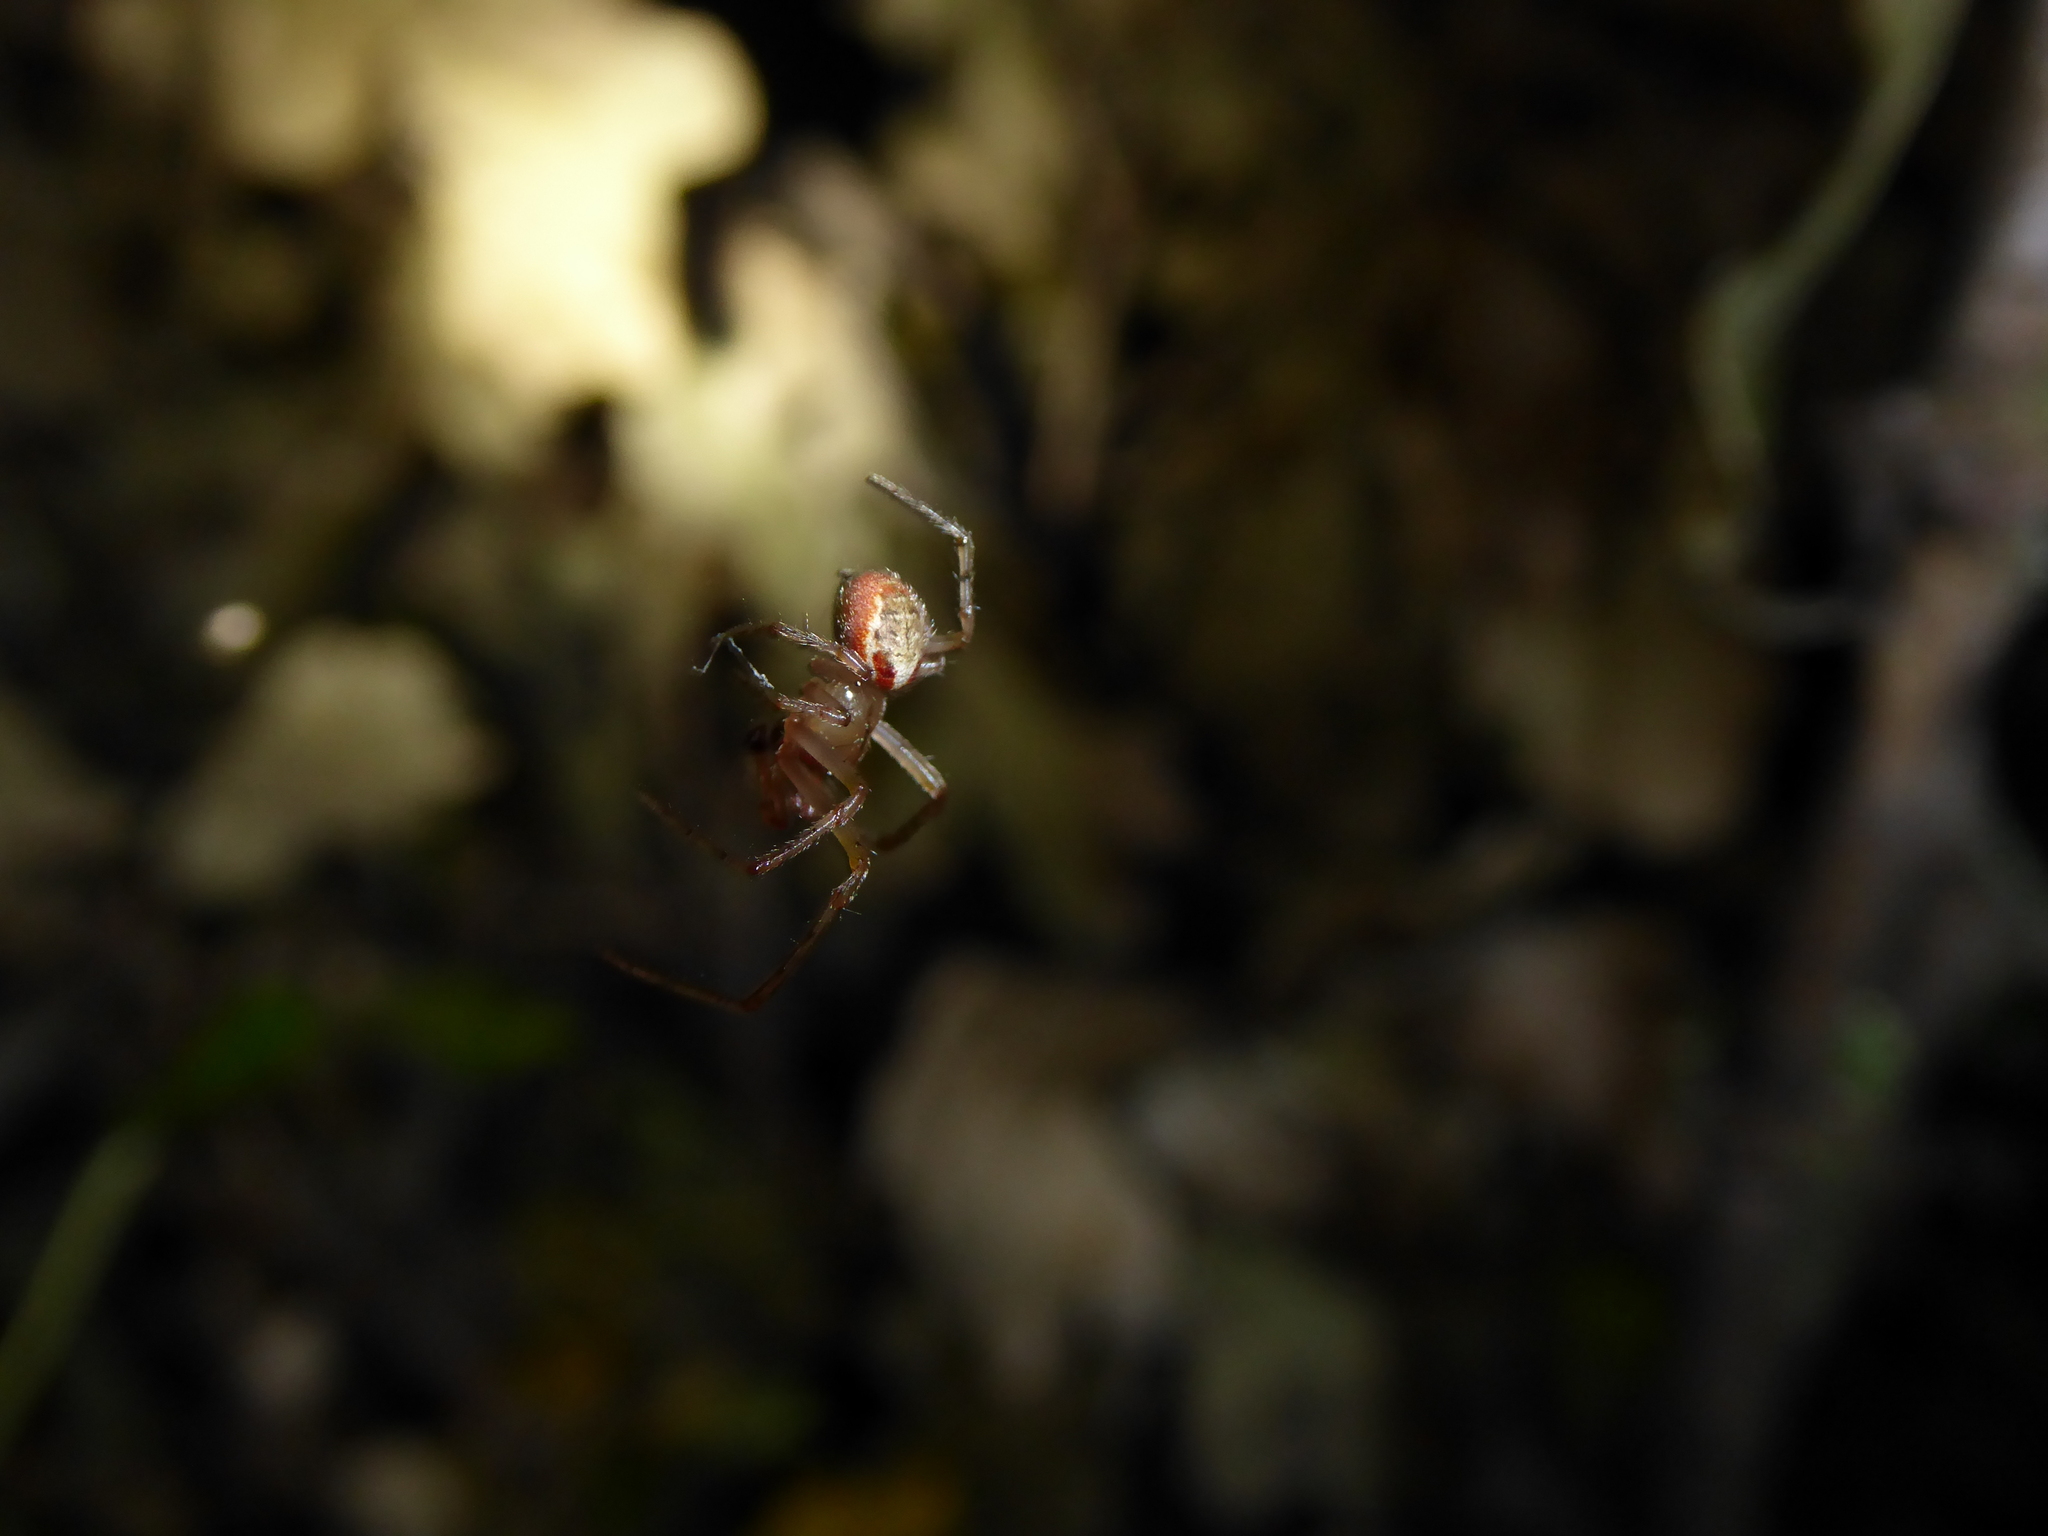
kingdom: Animalia
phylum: Arthropoda
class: Arachnida
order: Araneae
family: Araneidae
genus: Zygiella
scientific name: Zygiella
